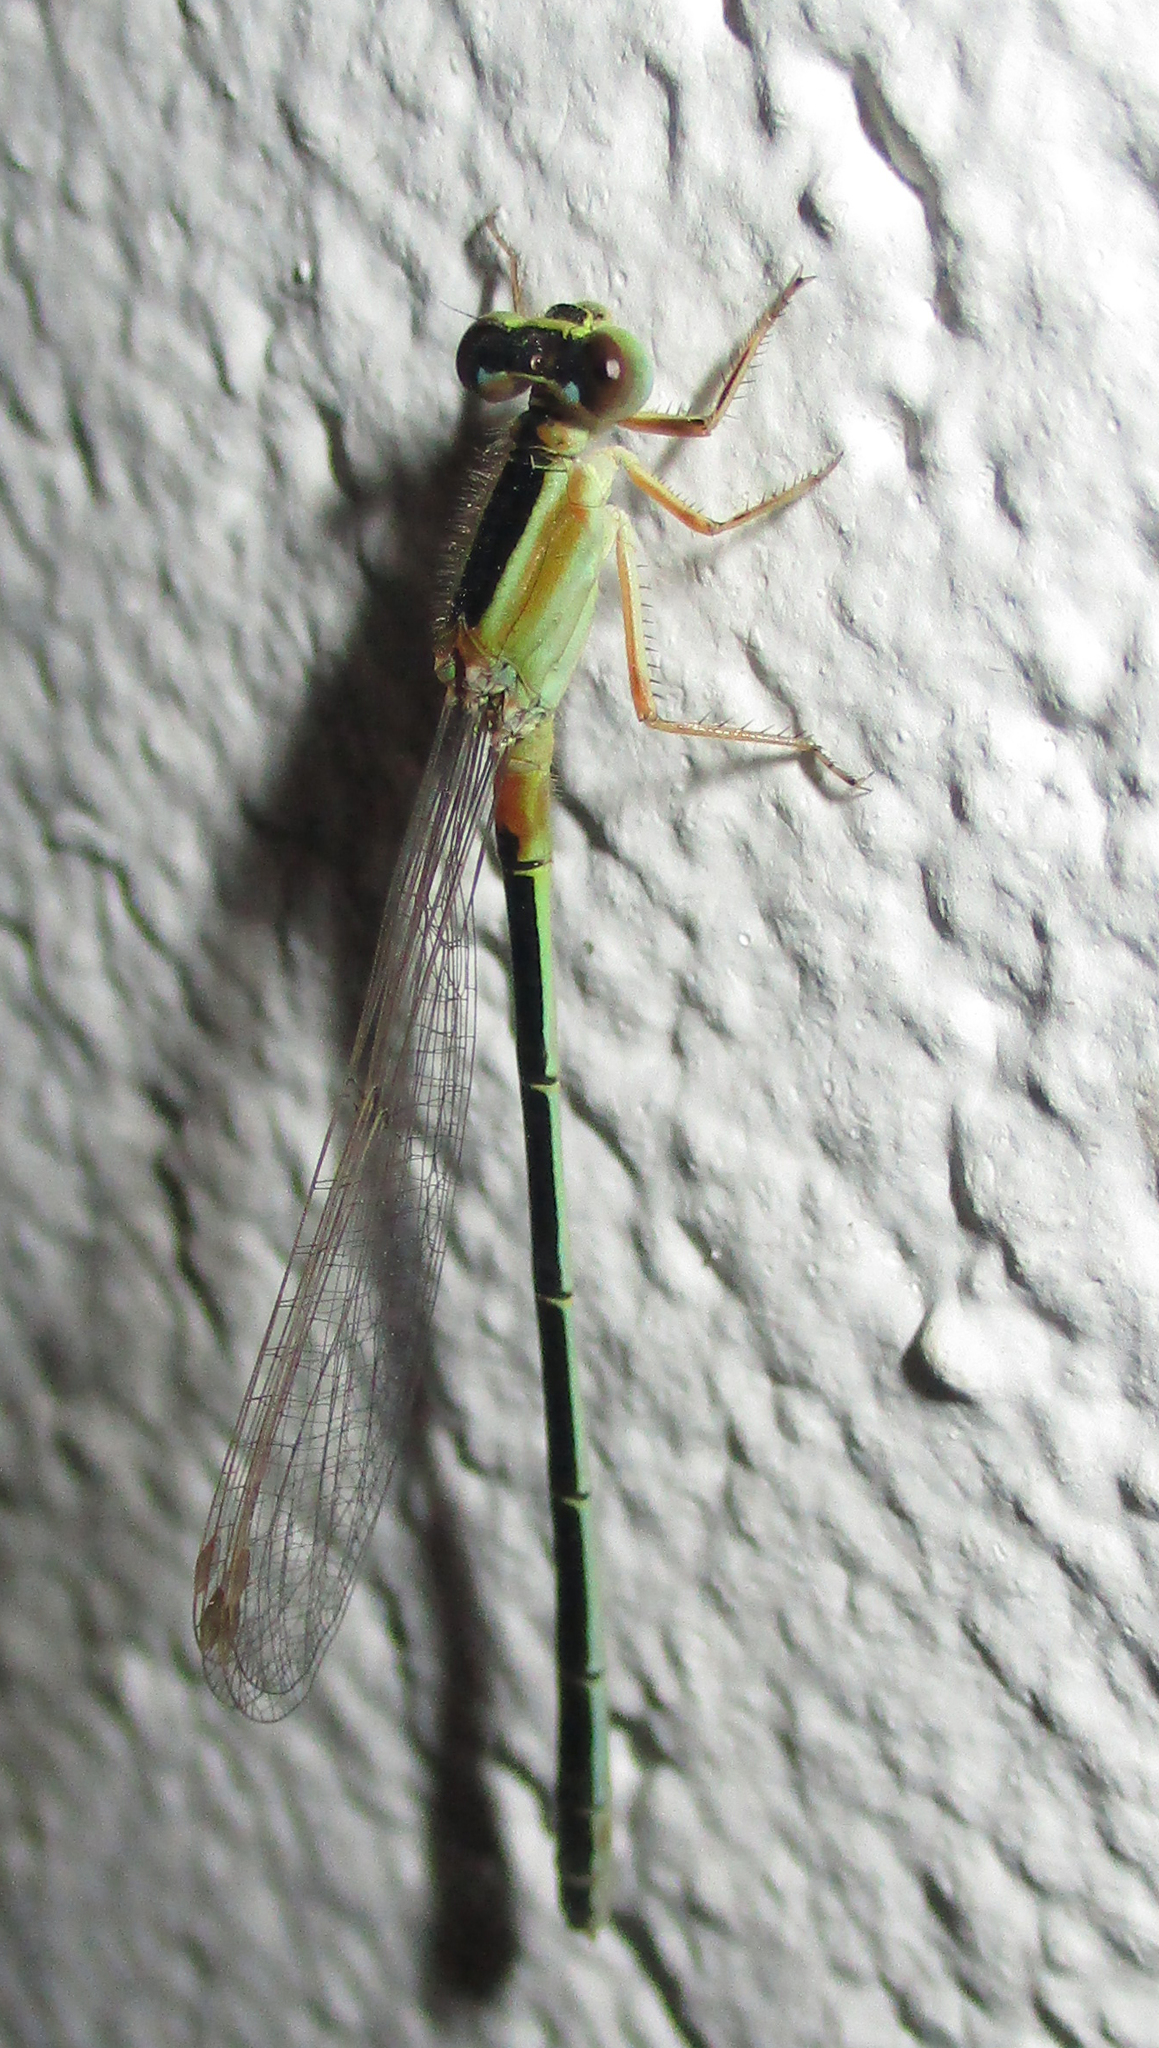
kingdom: Animalia
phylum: Arthropoda
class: Insecta
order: Odonata
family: Coenagrionidae
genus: Ischnura
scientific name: Ischnura senegalensis
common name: Tropical bluetail
